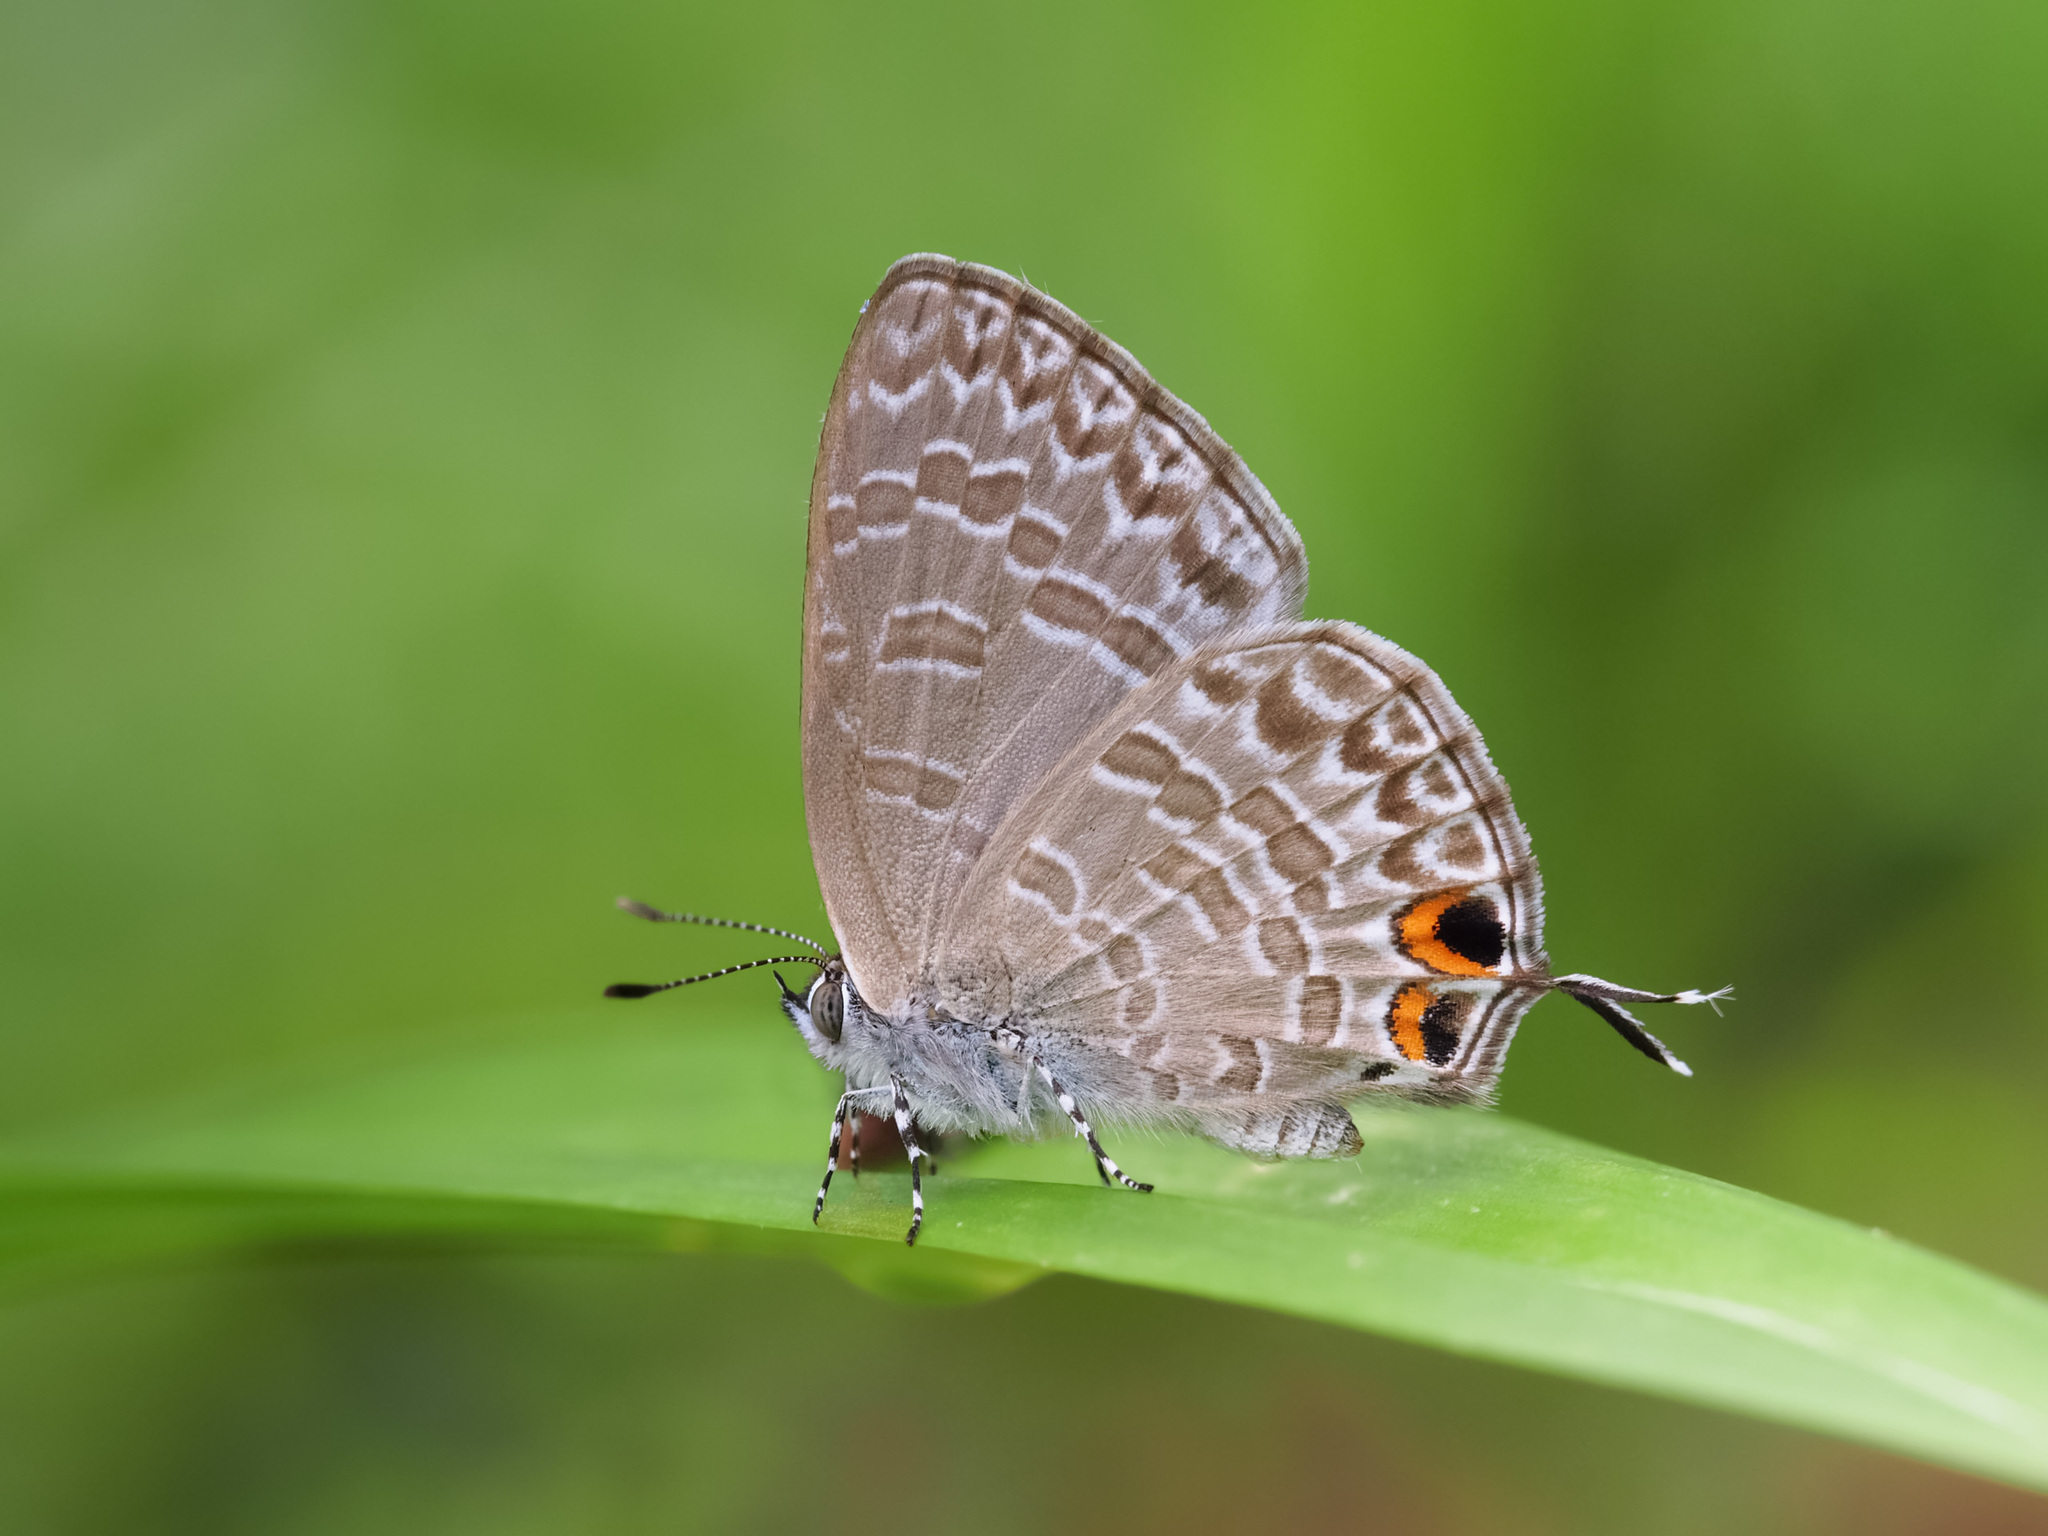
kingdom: Animalia
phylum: Arthropoda
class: Insecta
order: Lepidoptera
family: Lycaenidae
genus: Catopyrops
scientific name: Catopyrops ancyra
